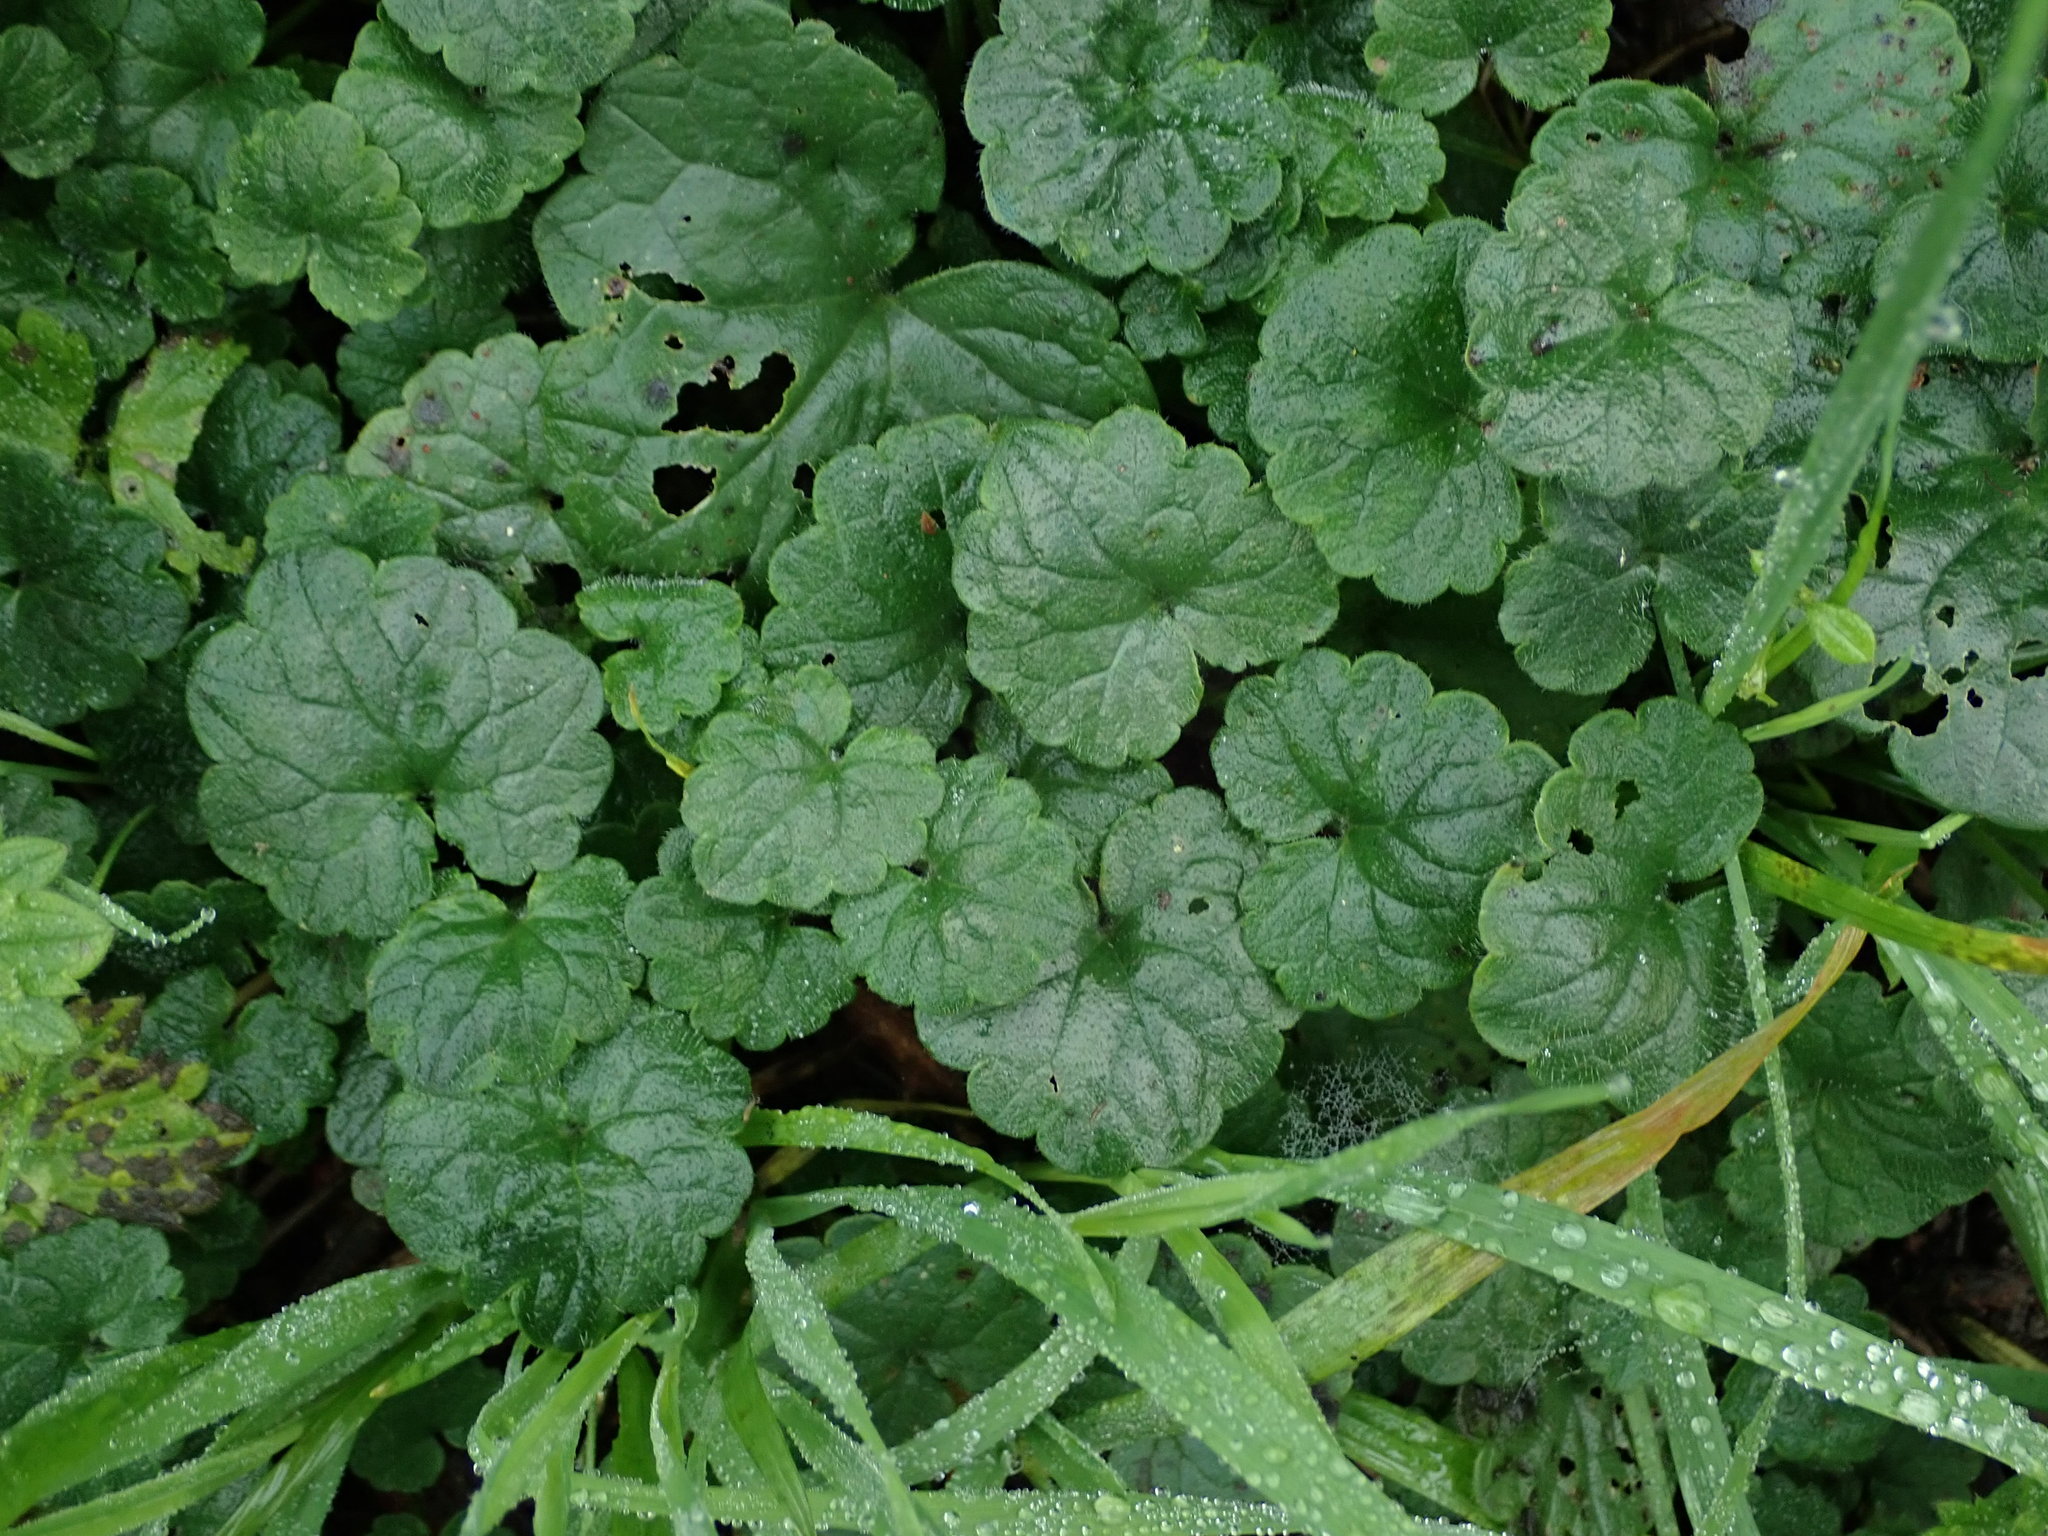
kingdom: Plantae
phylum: Tracheophyta
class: Magnoliopsida
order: Lamiales
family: Lamiaceae
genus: Glechoma
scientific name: Glechoma hederacea
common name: Ground ivy
